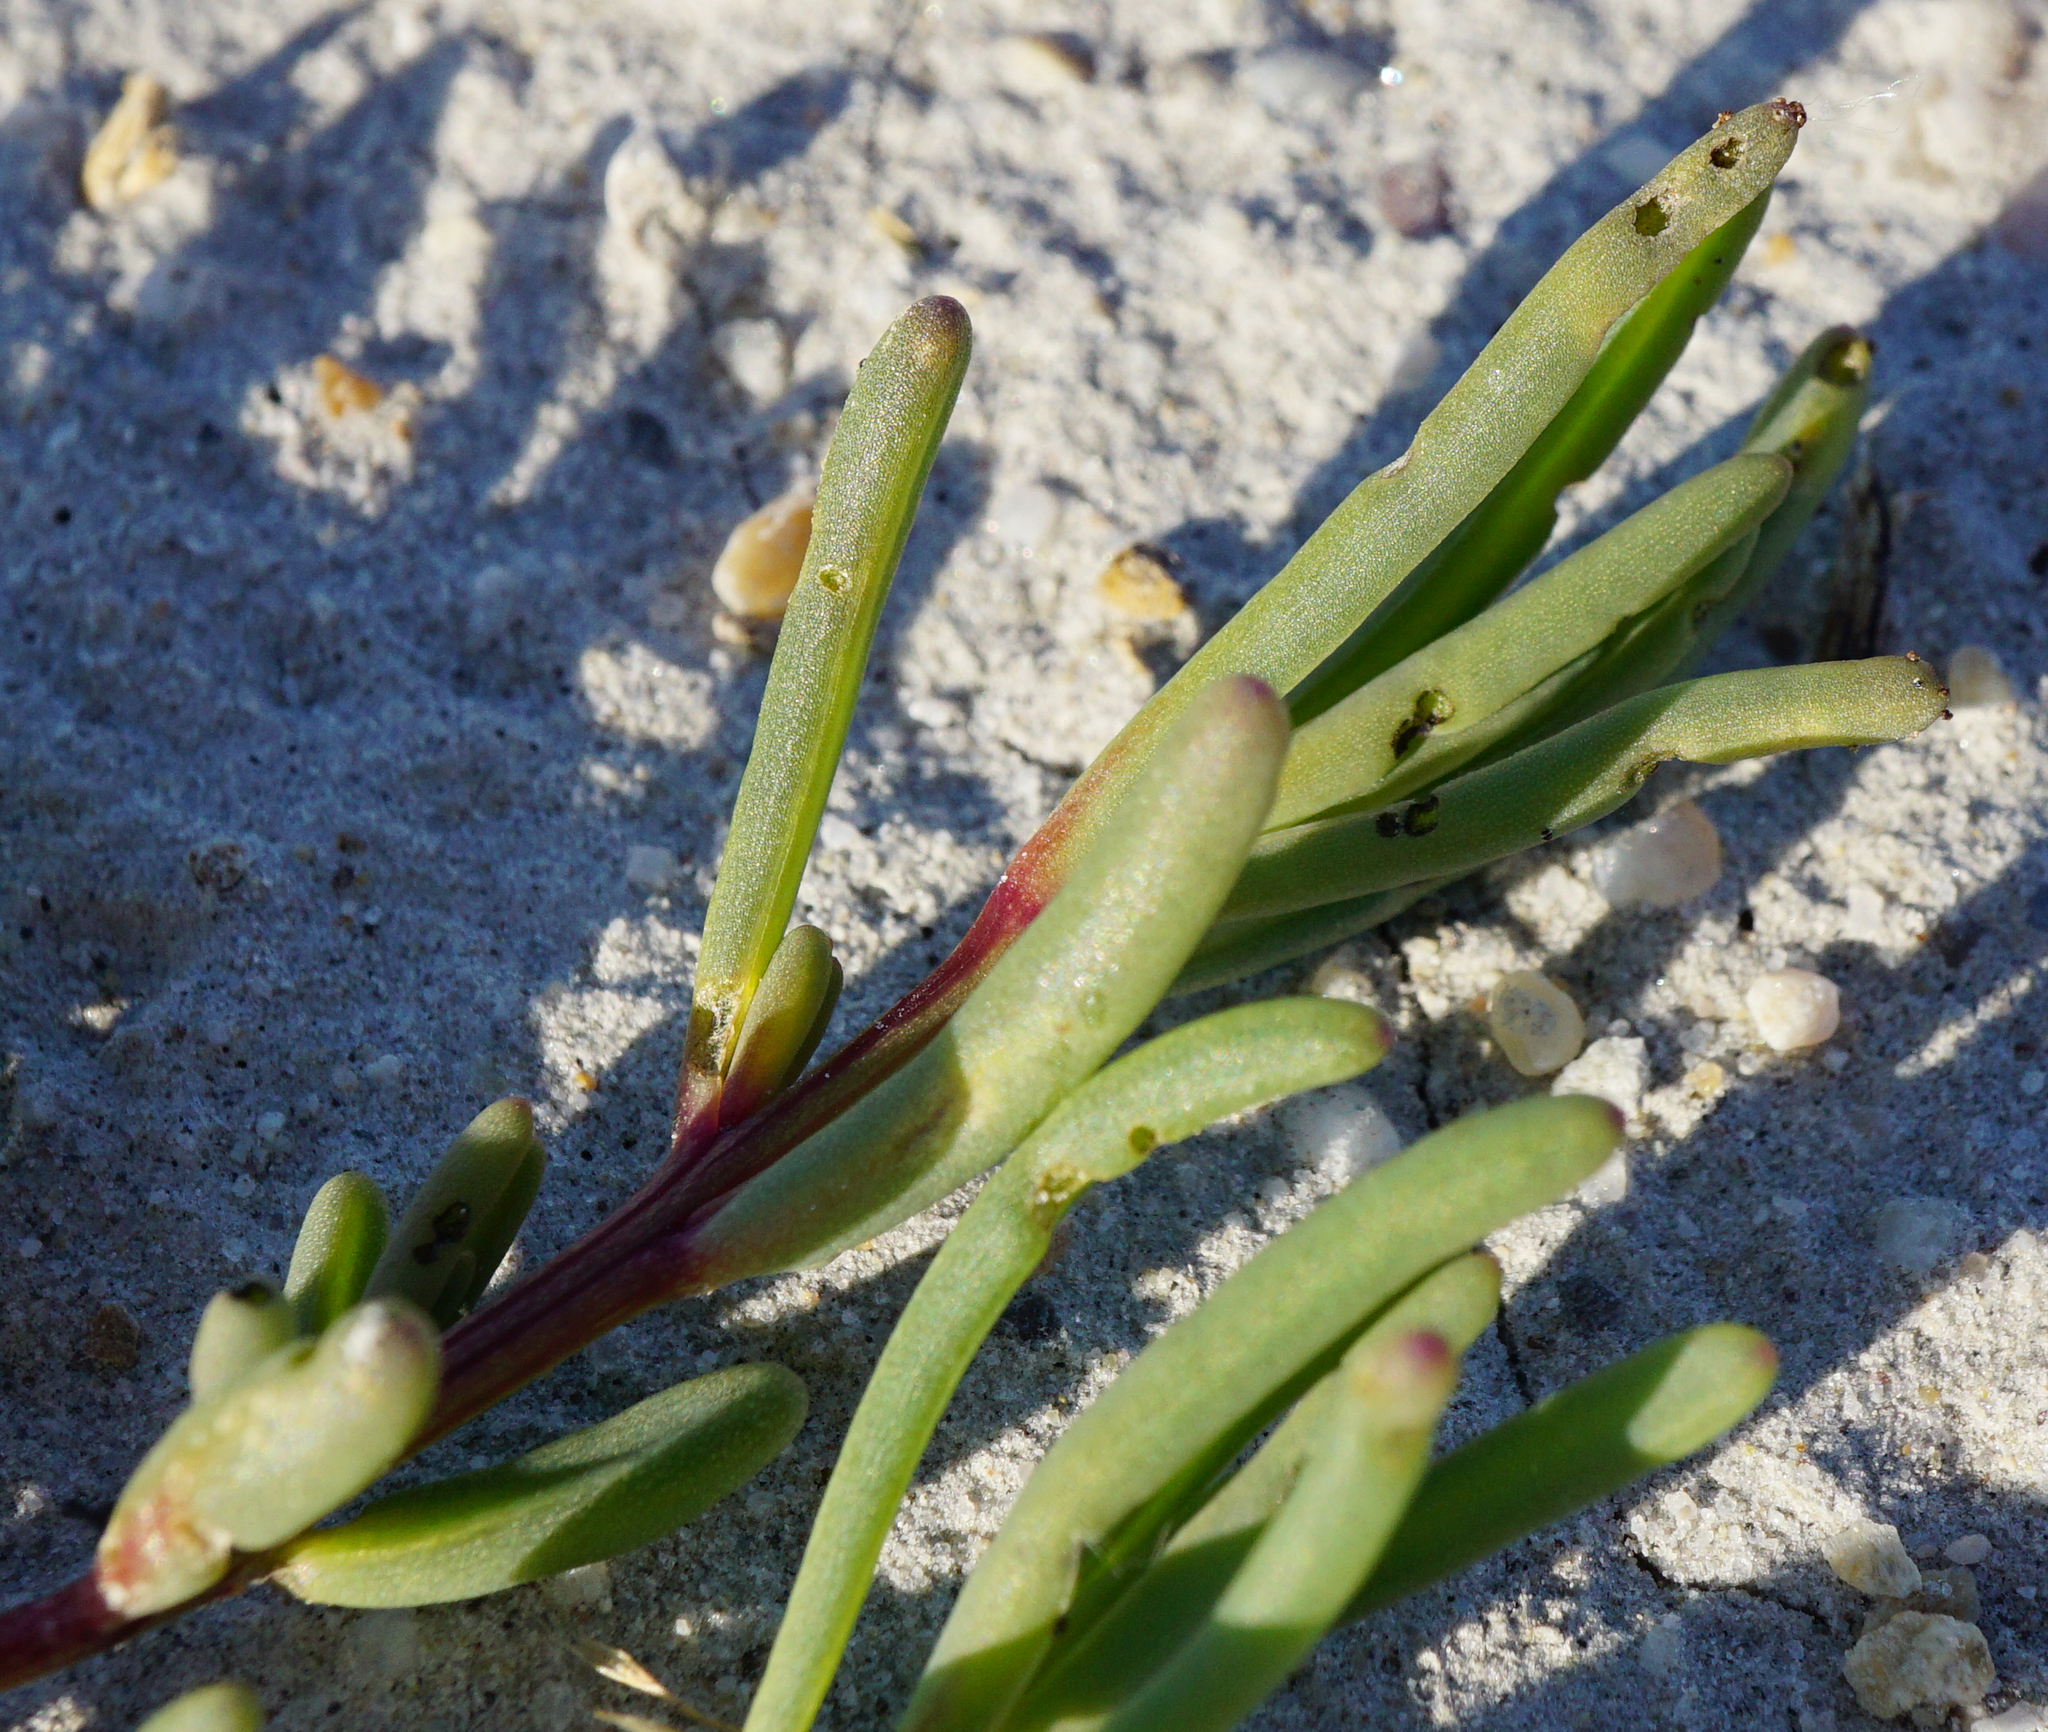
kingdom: Plantae
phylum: Tracheophyta
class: Magnoliopsida
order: Caryophyllales
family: Amaranthaceae
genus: Suaeda
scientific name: Suaeda pannonica
